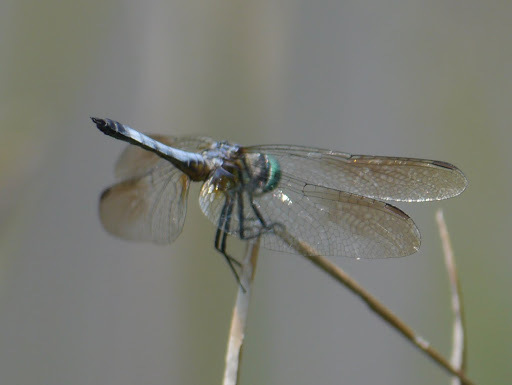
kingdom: Animalia
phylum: Arthropoda
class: Insecta
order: Odonata
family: Libellulidae
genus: Pachydiplax
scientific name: Pachydiplax longipennis
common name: Blue dasher
